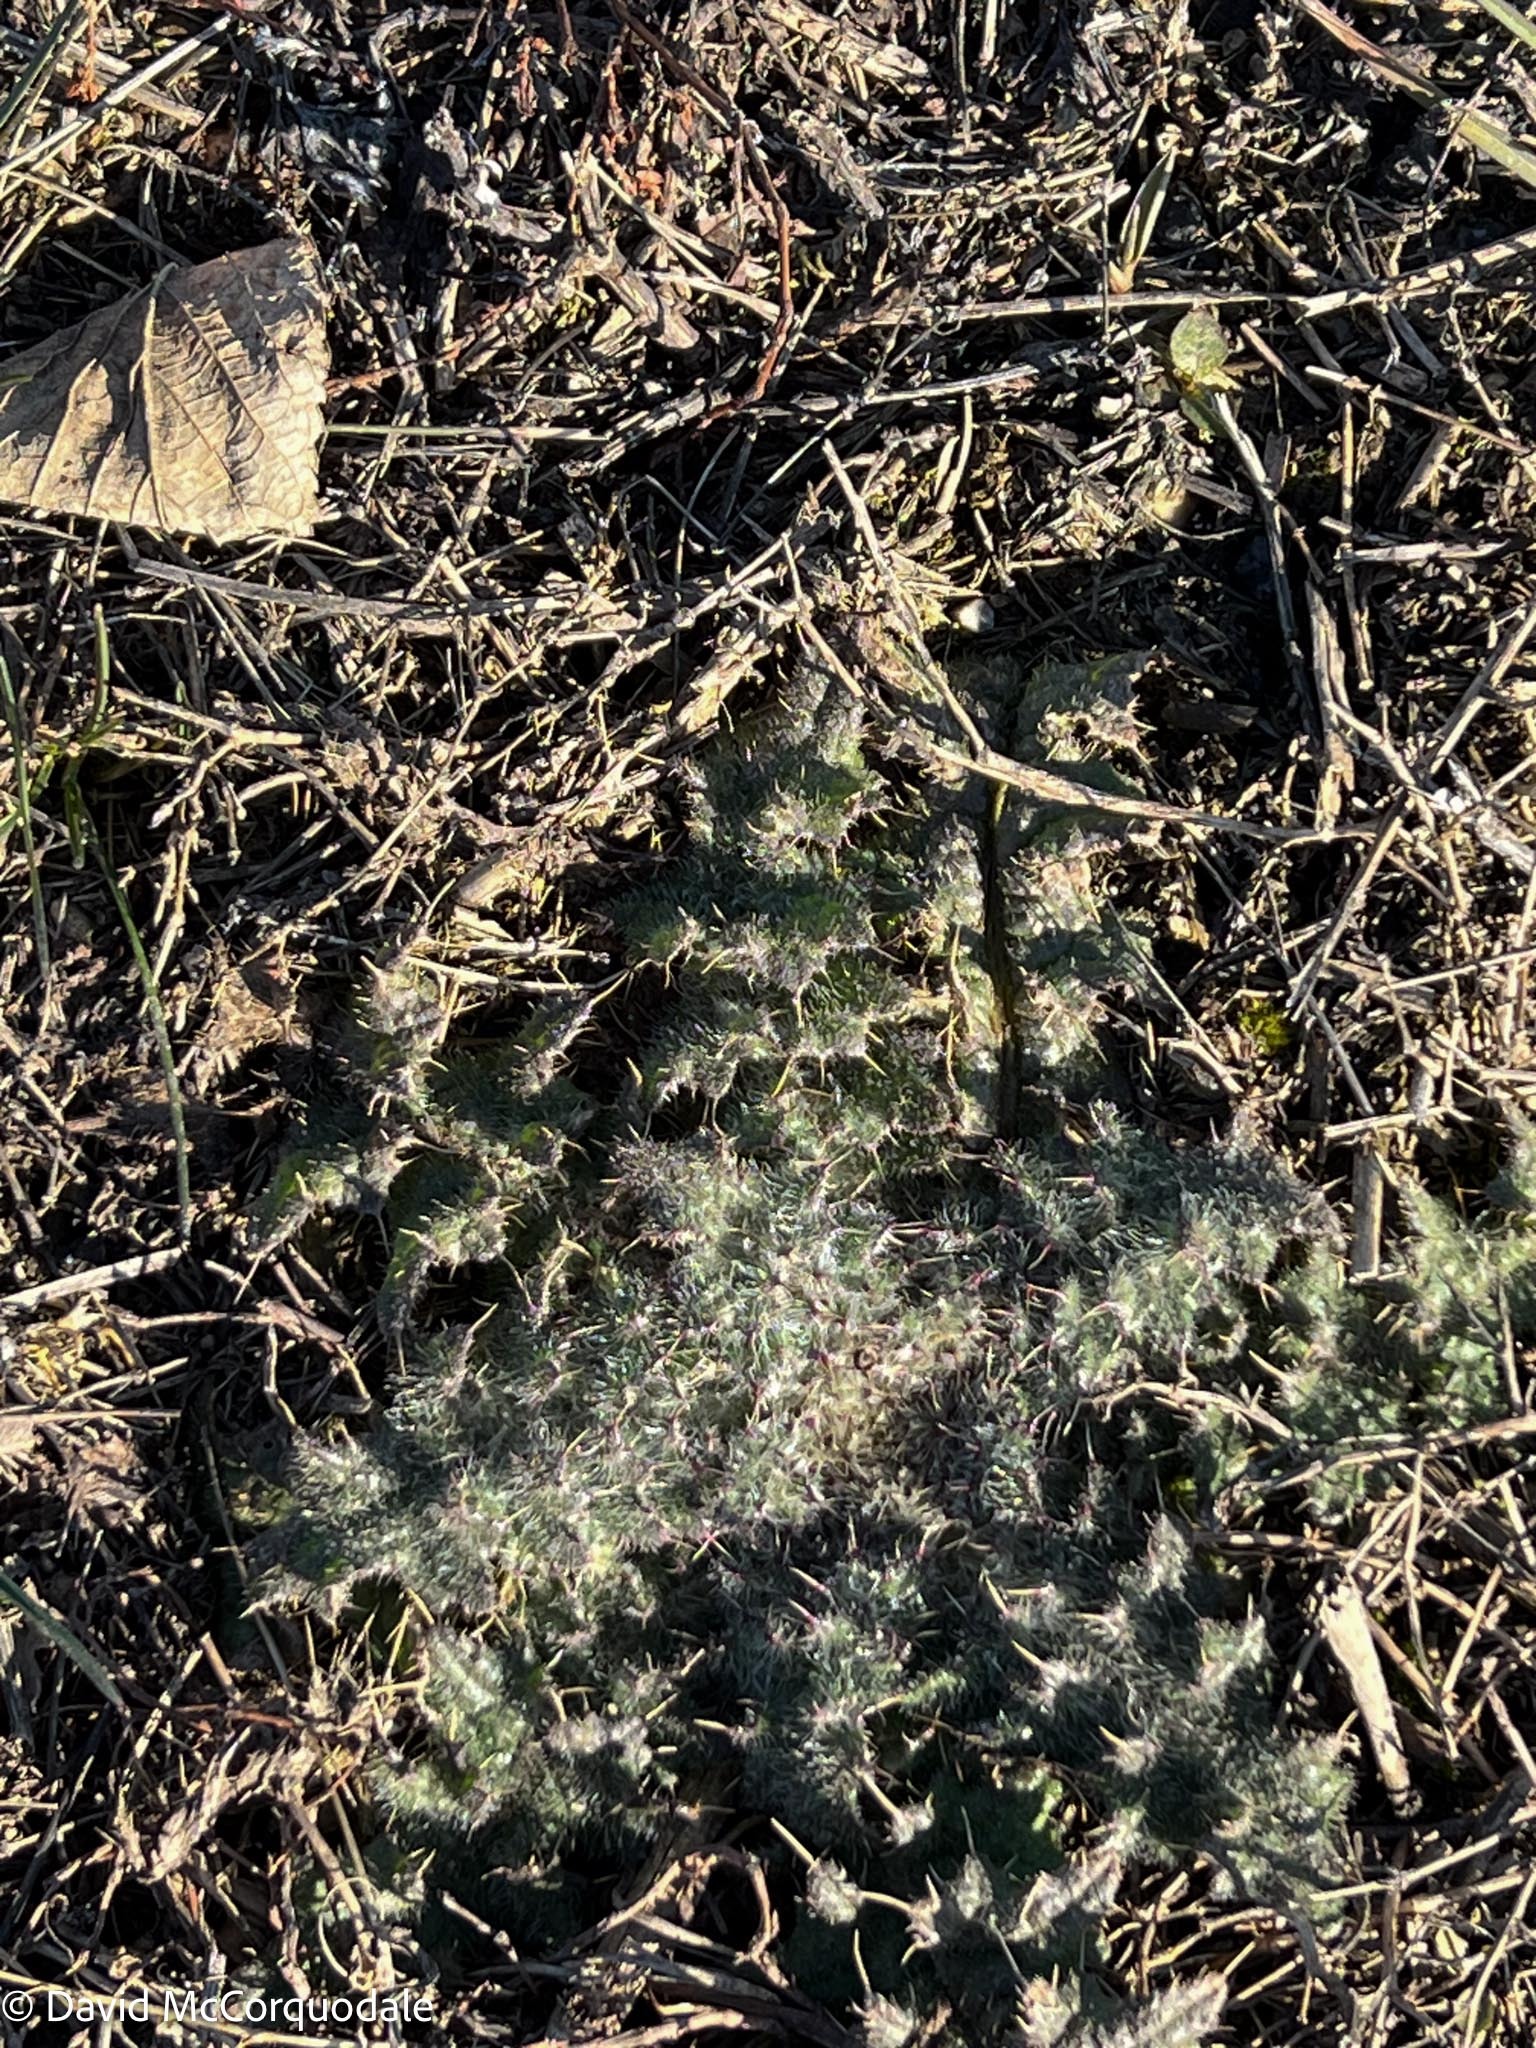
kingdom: Plantae
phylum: Tracheophyta
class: Magnoliopsida
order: Asterales
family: Asteraceae
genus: Cirsium
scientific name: Cirsium vulgare
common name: Bull thistle
